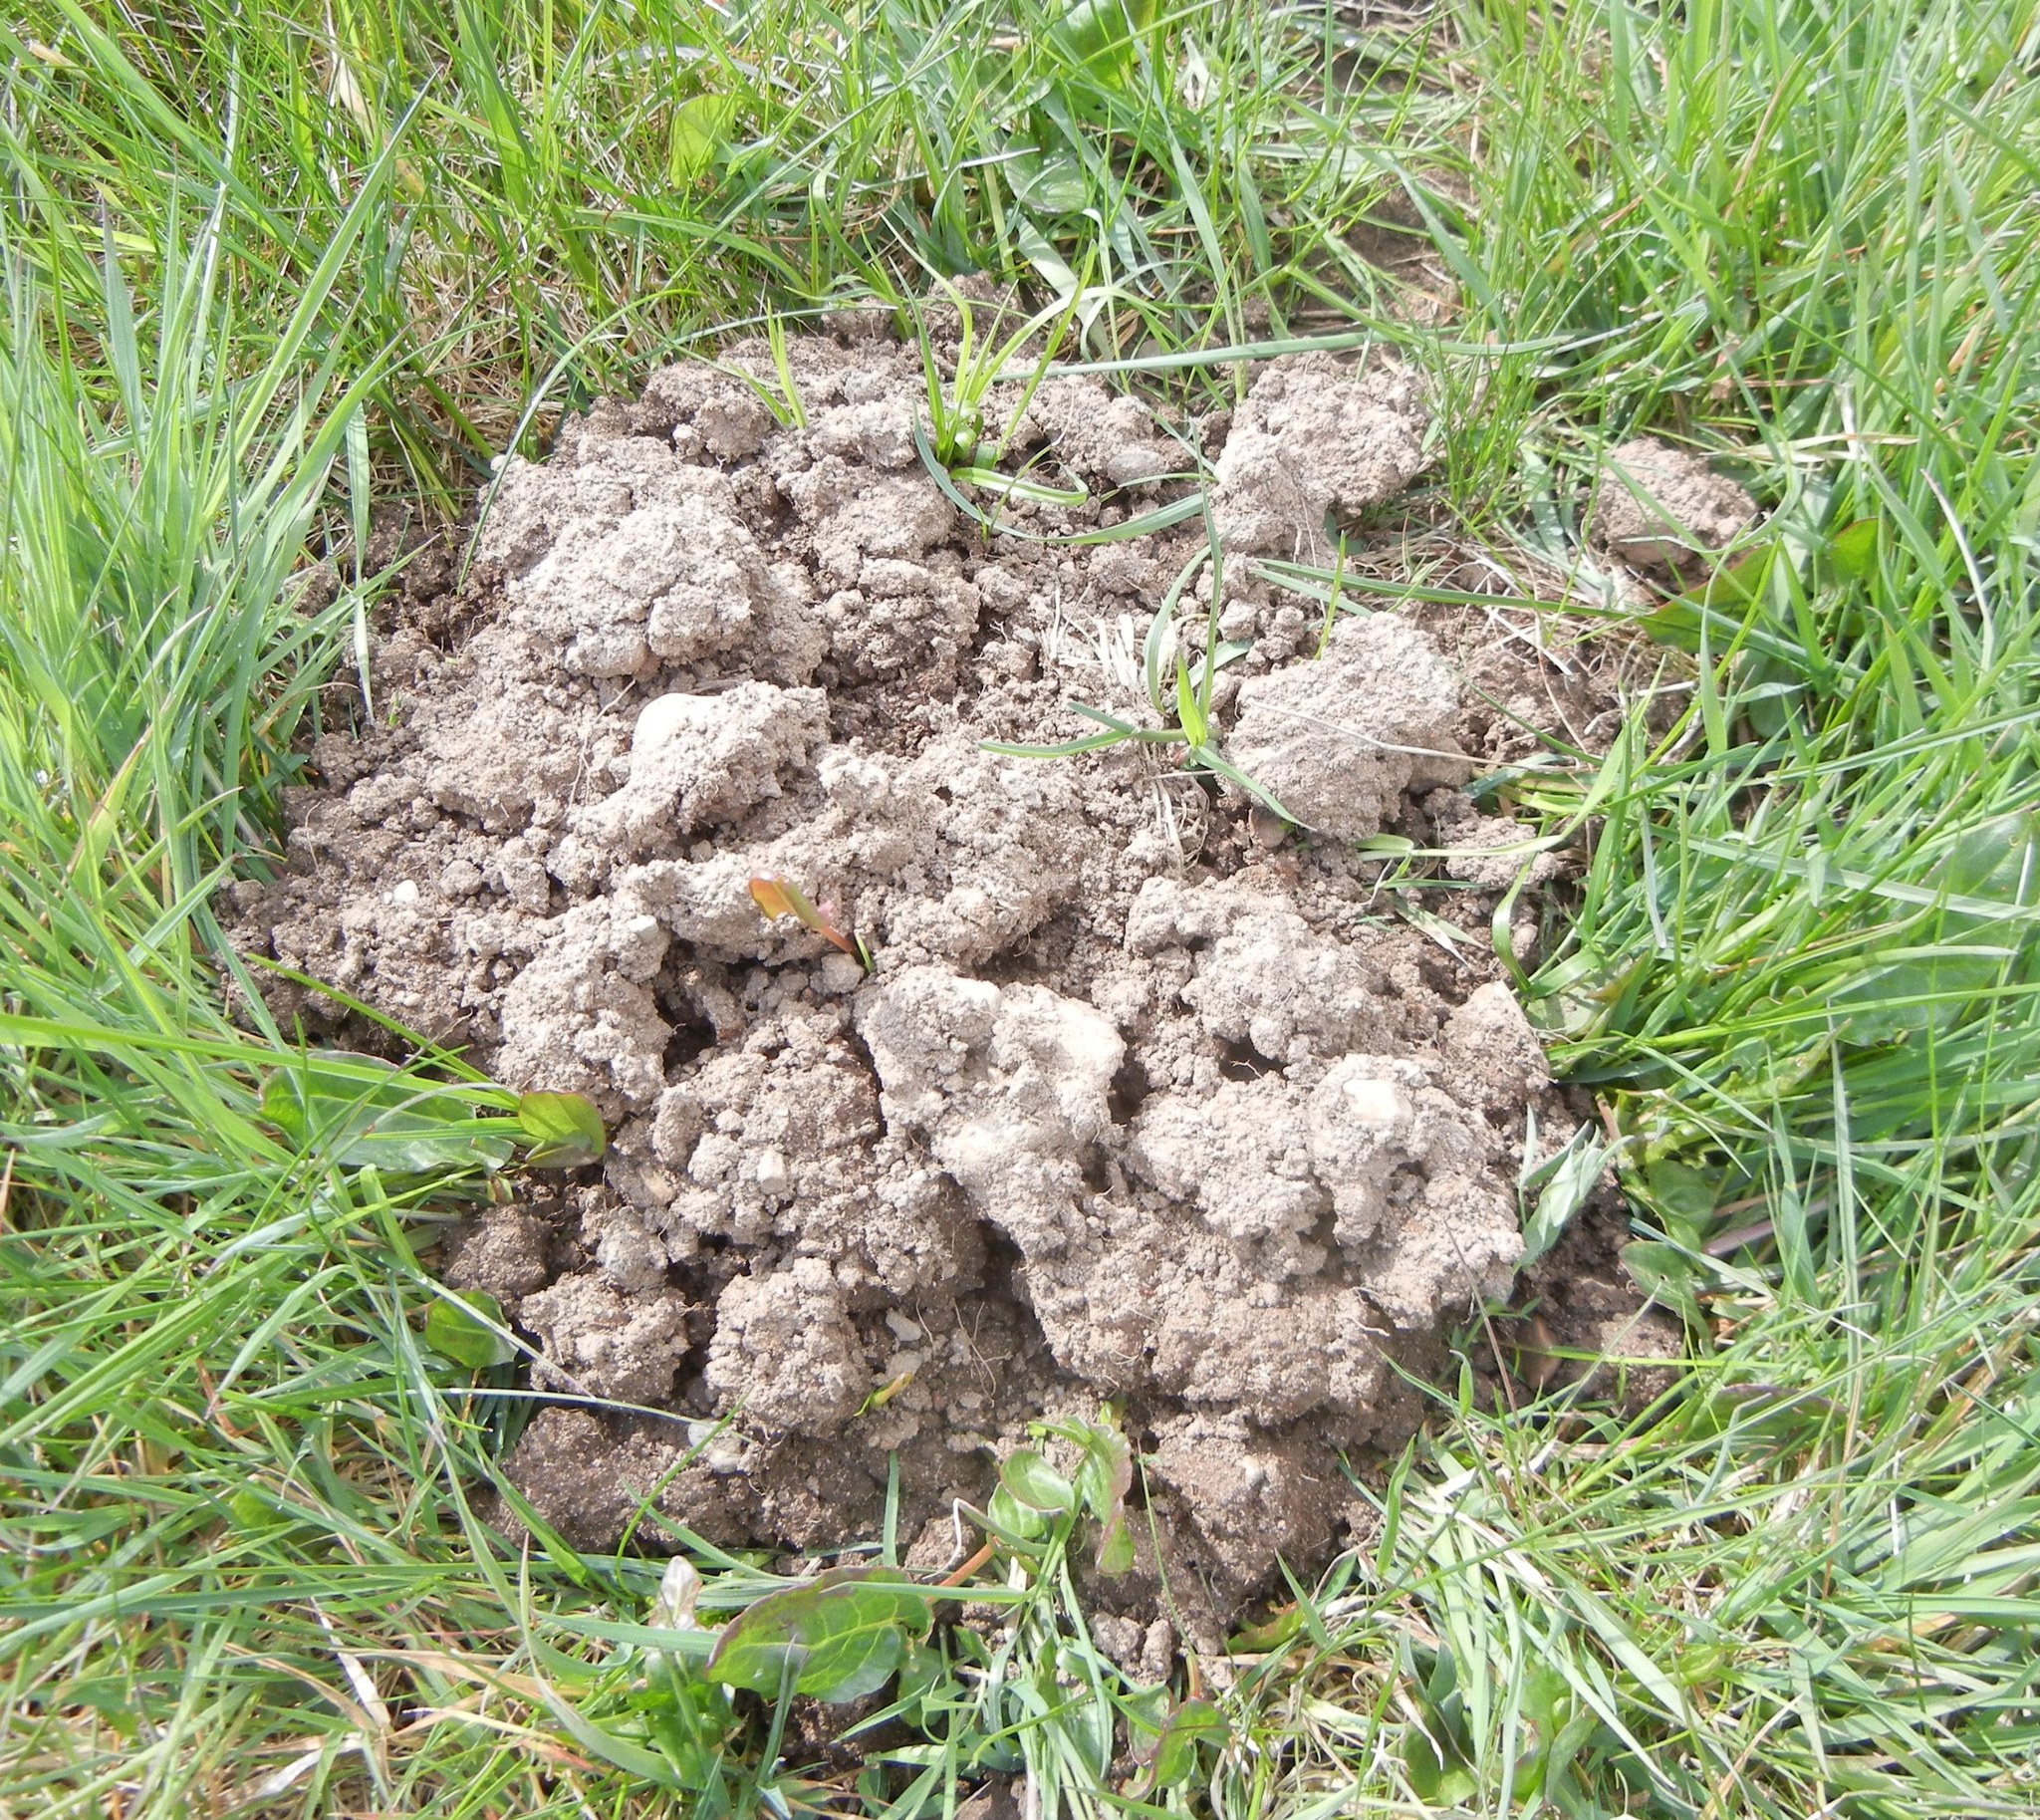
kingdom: Animalia
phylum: Chordata
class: Mammalia
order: Soricomorpha
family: Talpidae
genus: Talpa
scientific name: Talpa europaea
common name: European mole
